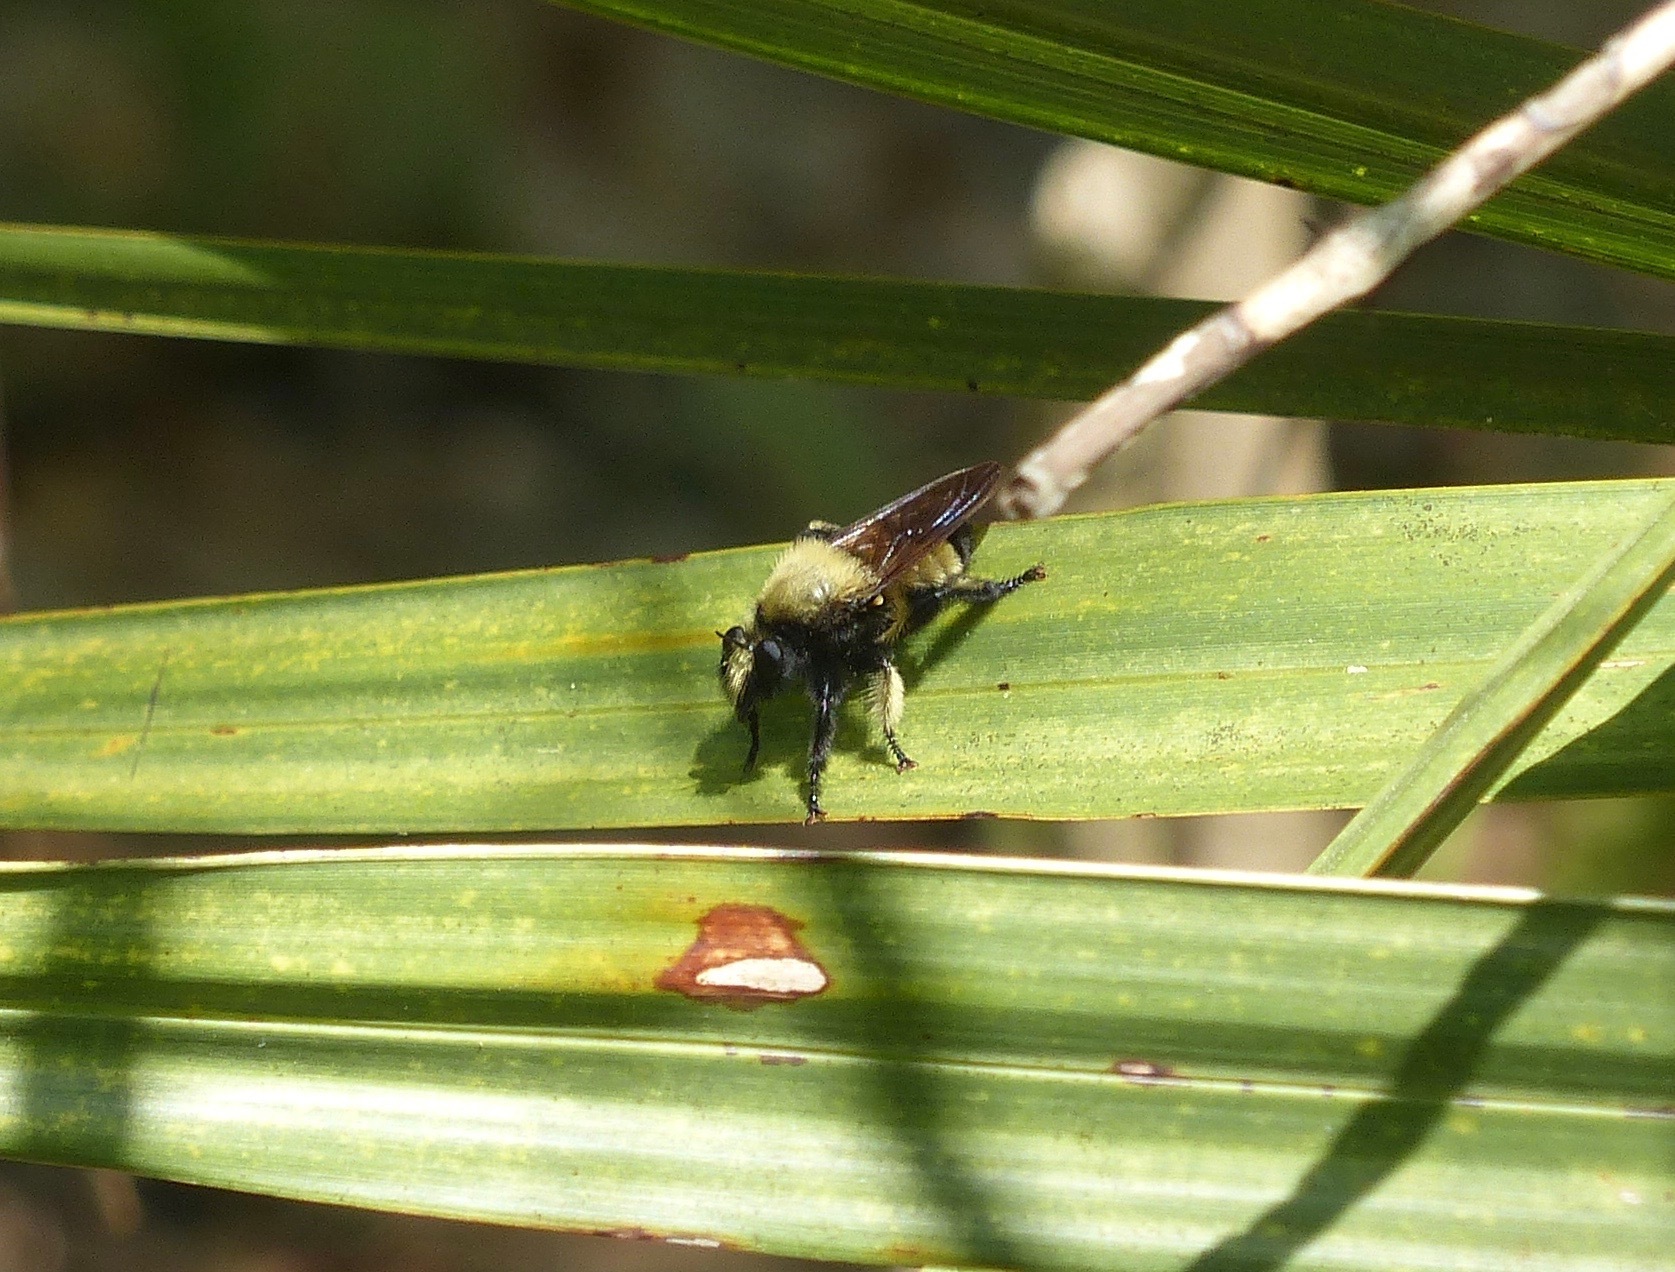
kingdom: Animalia
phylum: Arthropoda
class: Insecta
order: Diptera
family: Asilidae
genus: Laphria
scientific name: Laphria macquarti
